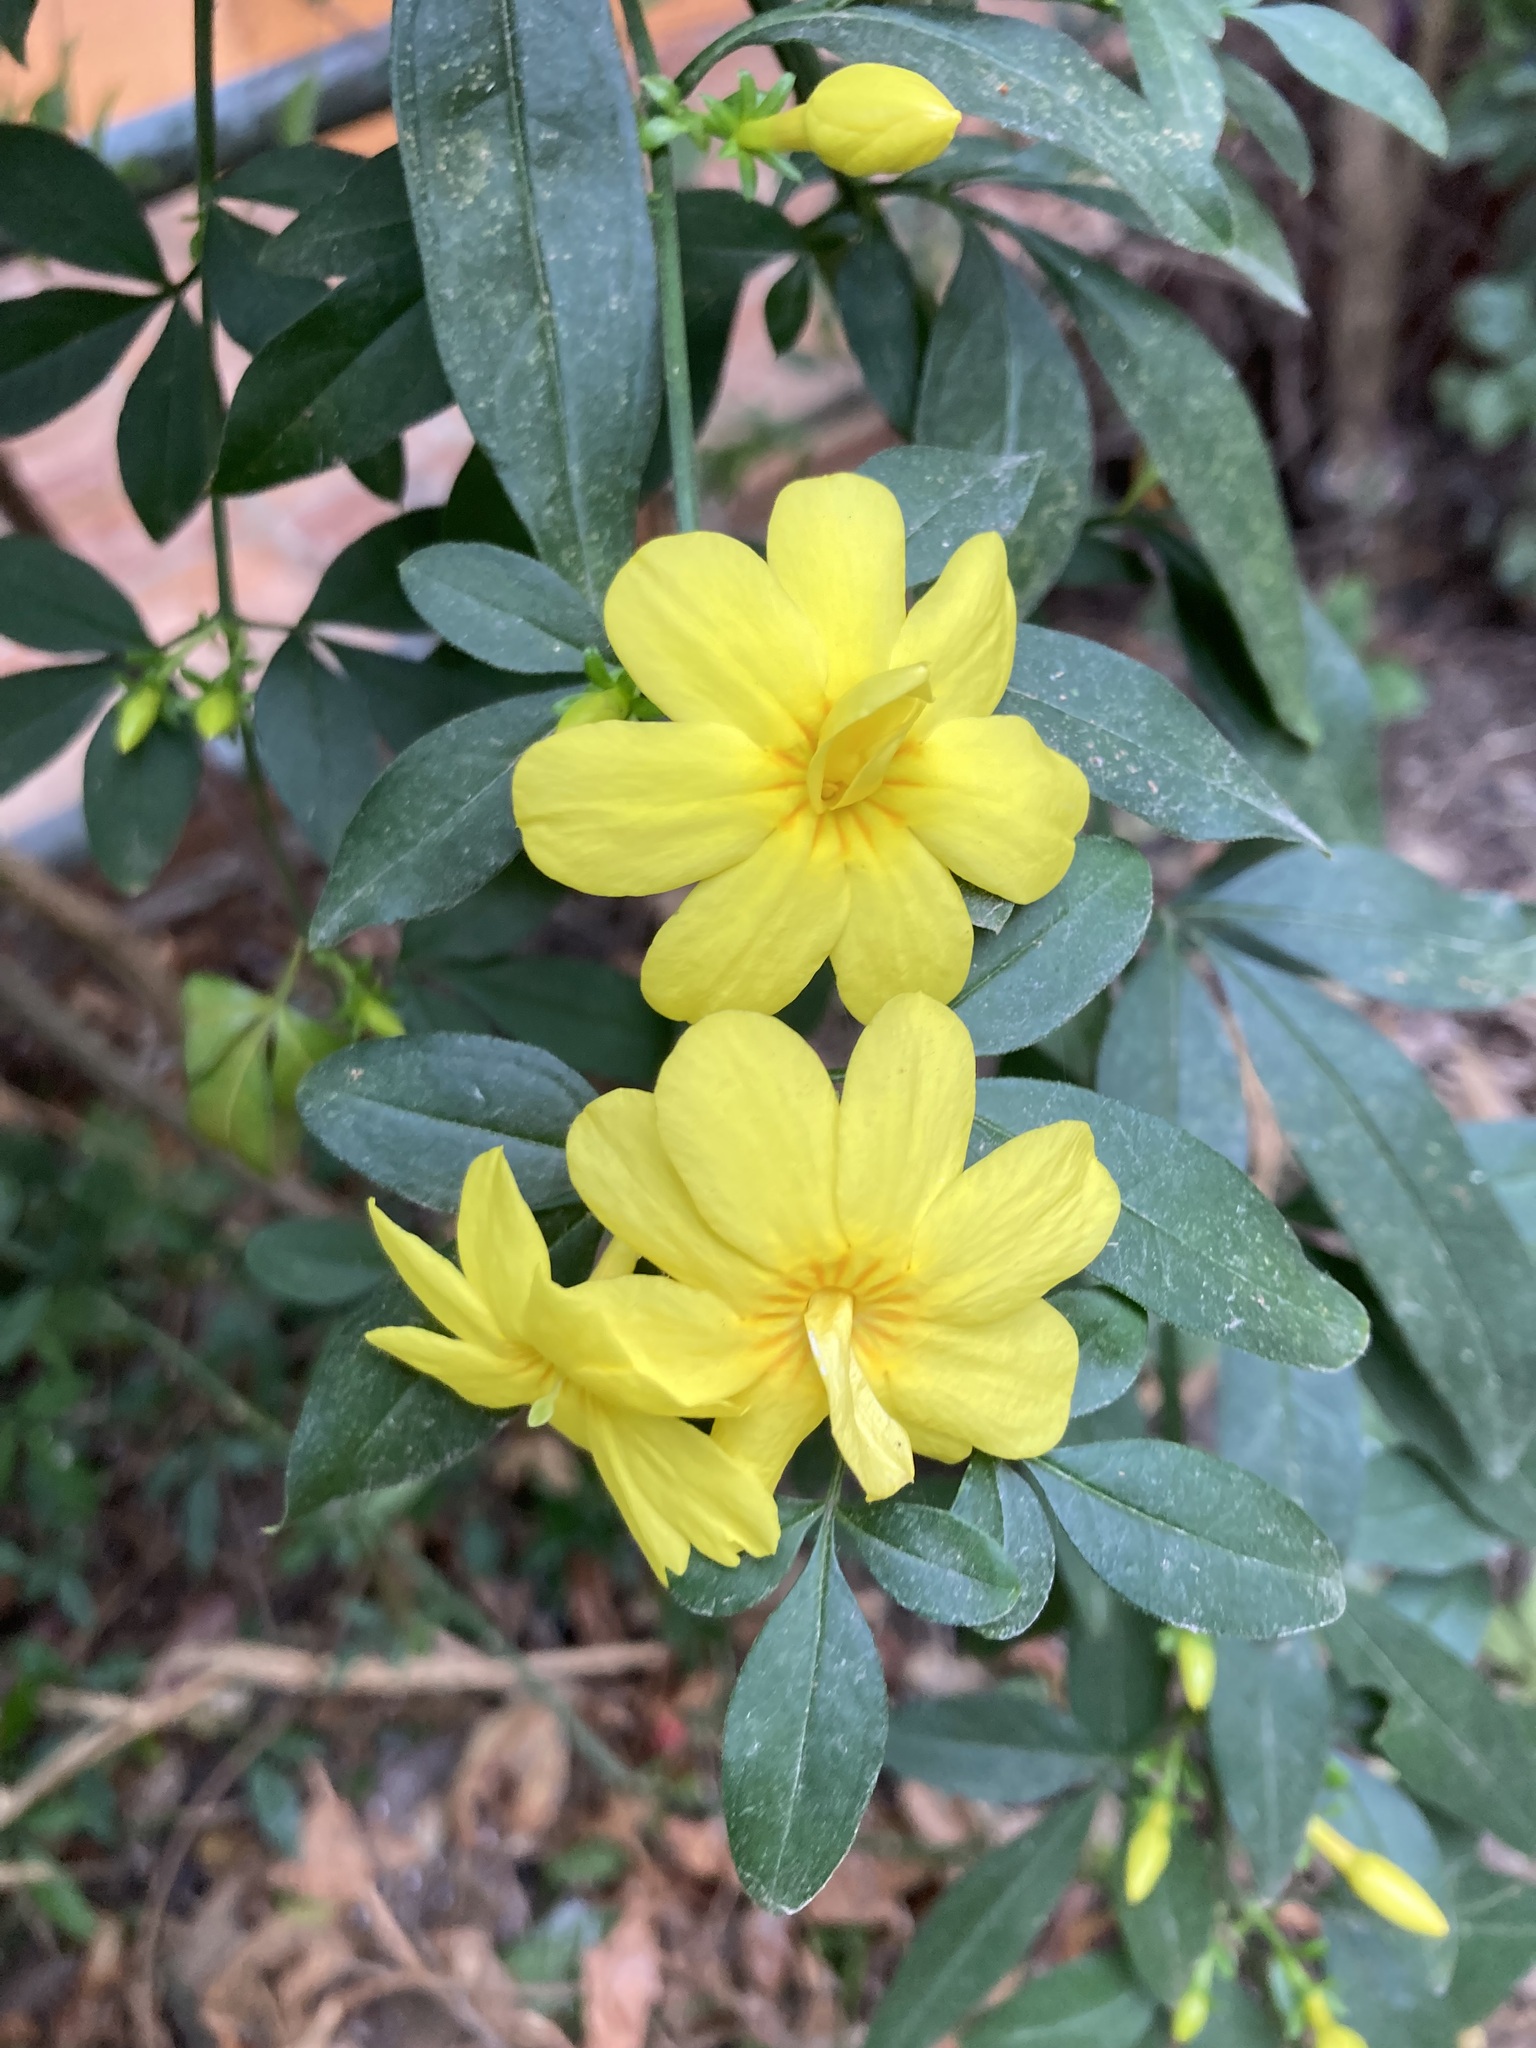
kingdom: Plantae
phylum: Tracheophyta
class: Magnoliopsida
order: Lamiales
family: Oleaceae
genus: Jasminum
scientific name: Jasminum mesnyi
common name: Japanese jasmine
